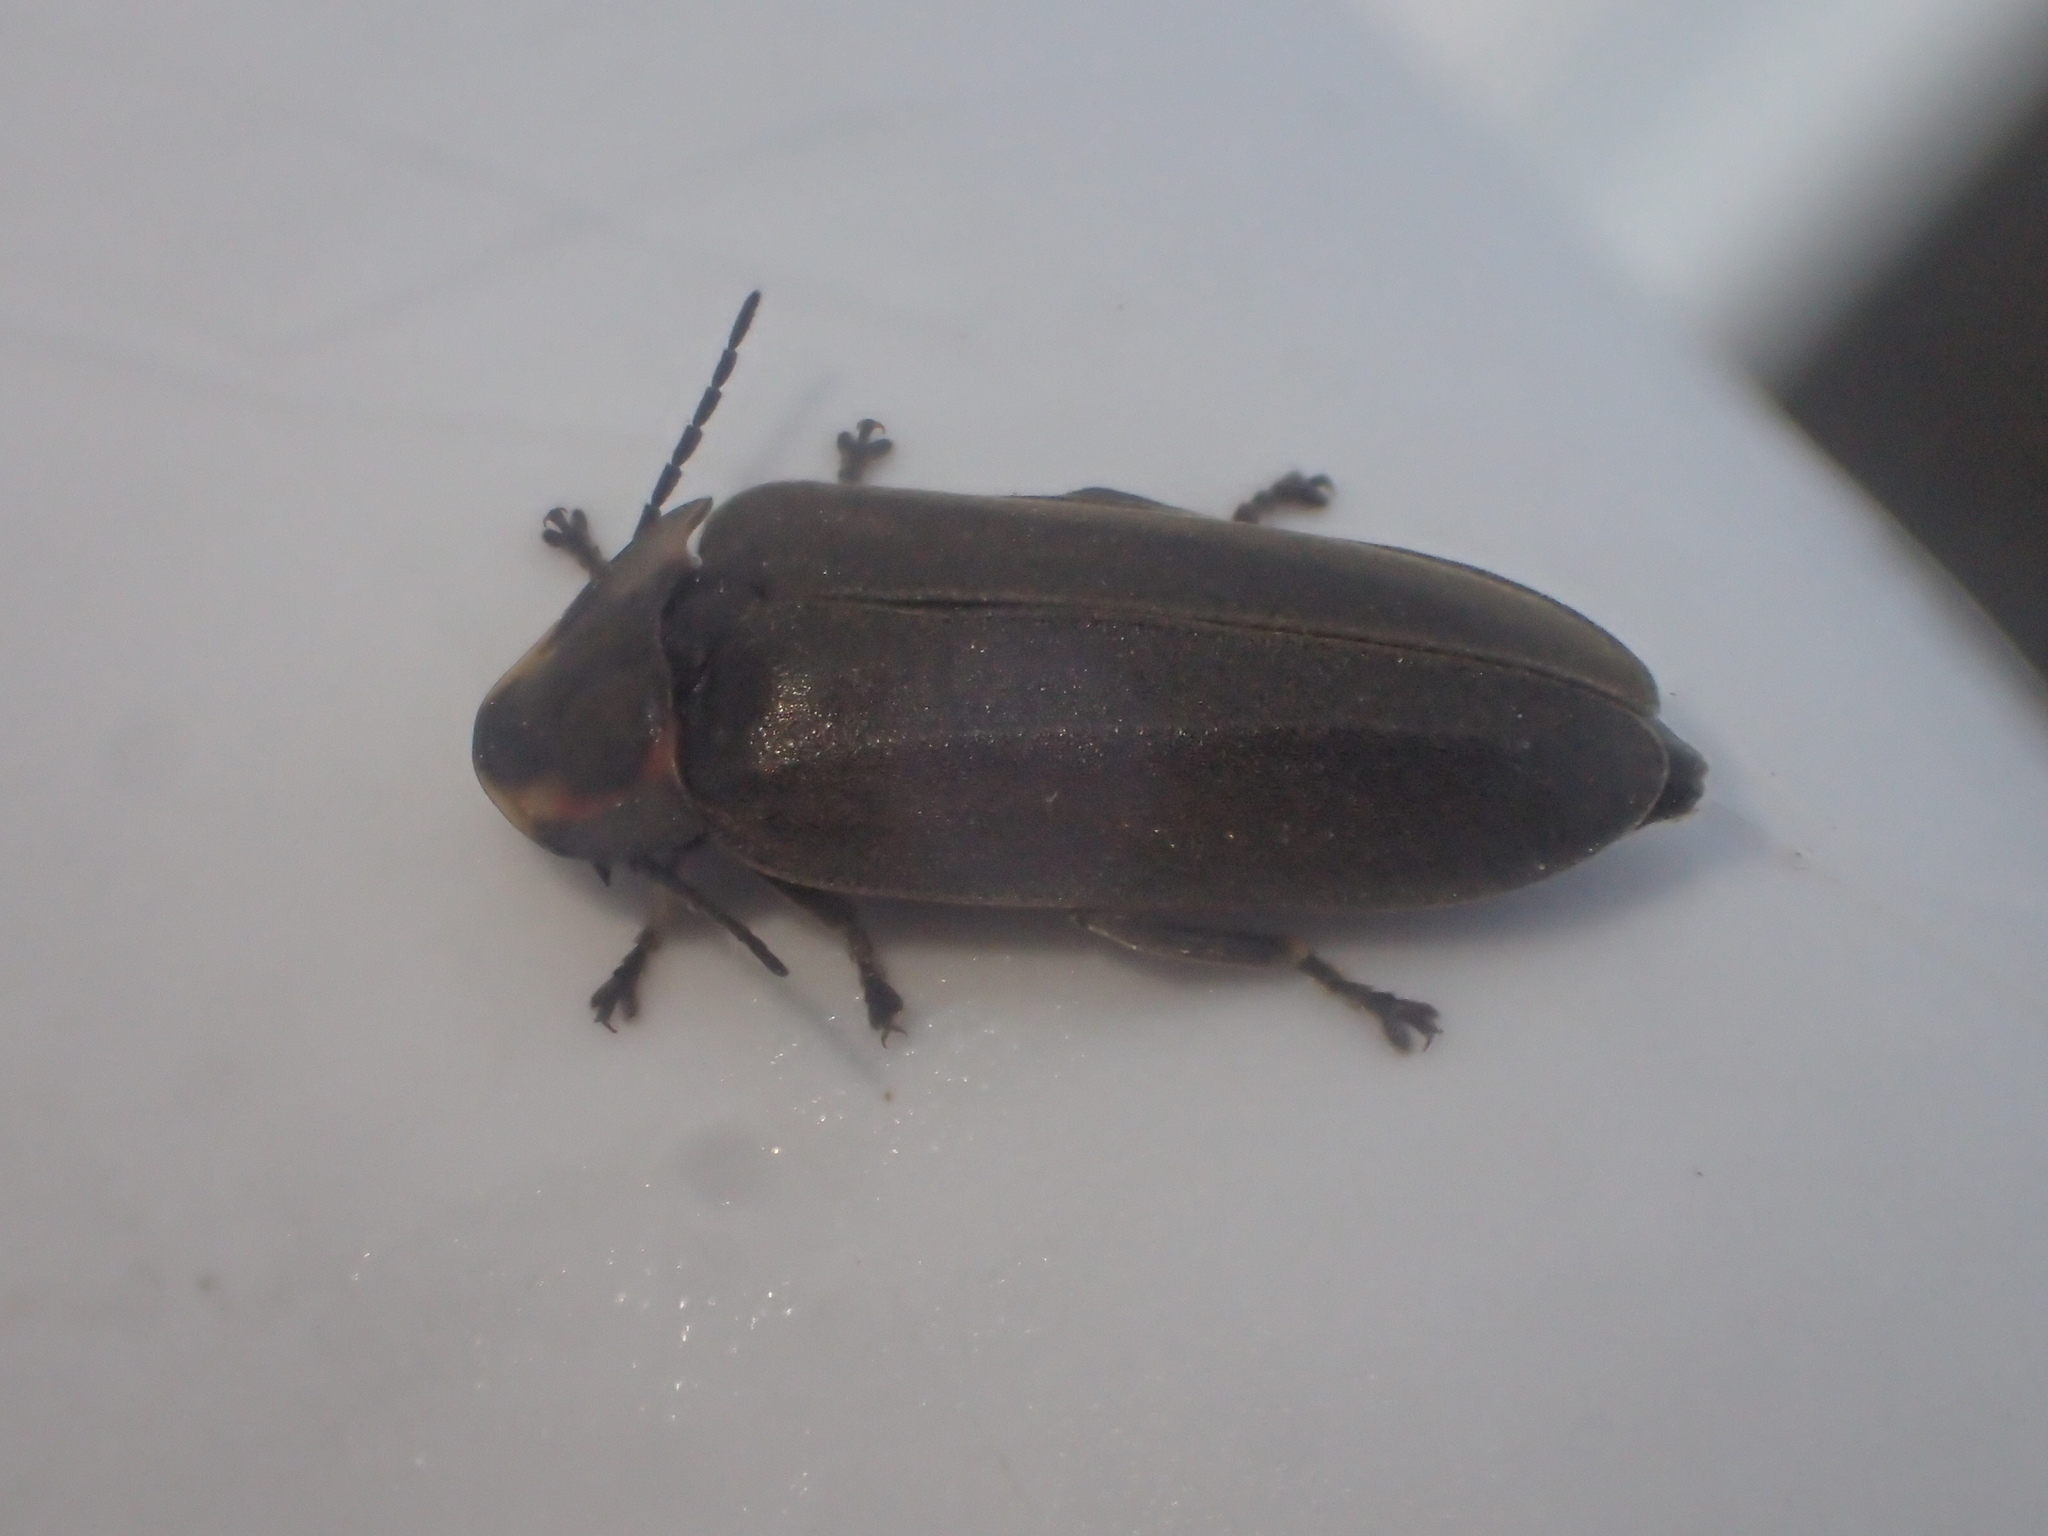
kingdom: Animalia
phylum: Arthropoda
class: Insecta
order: Coleoptera
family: Lampyridae
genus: Photinus
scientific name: Photinus corrusca
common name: Winter firefly
